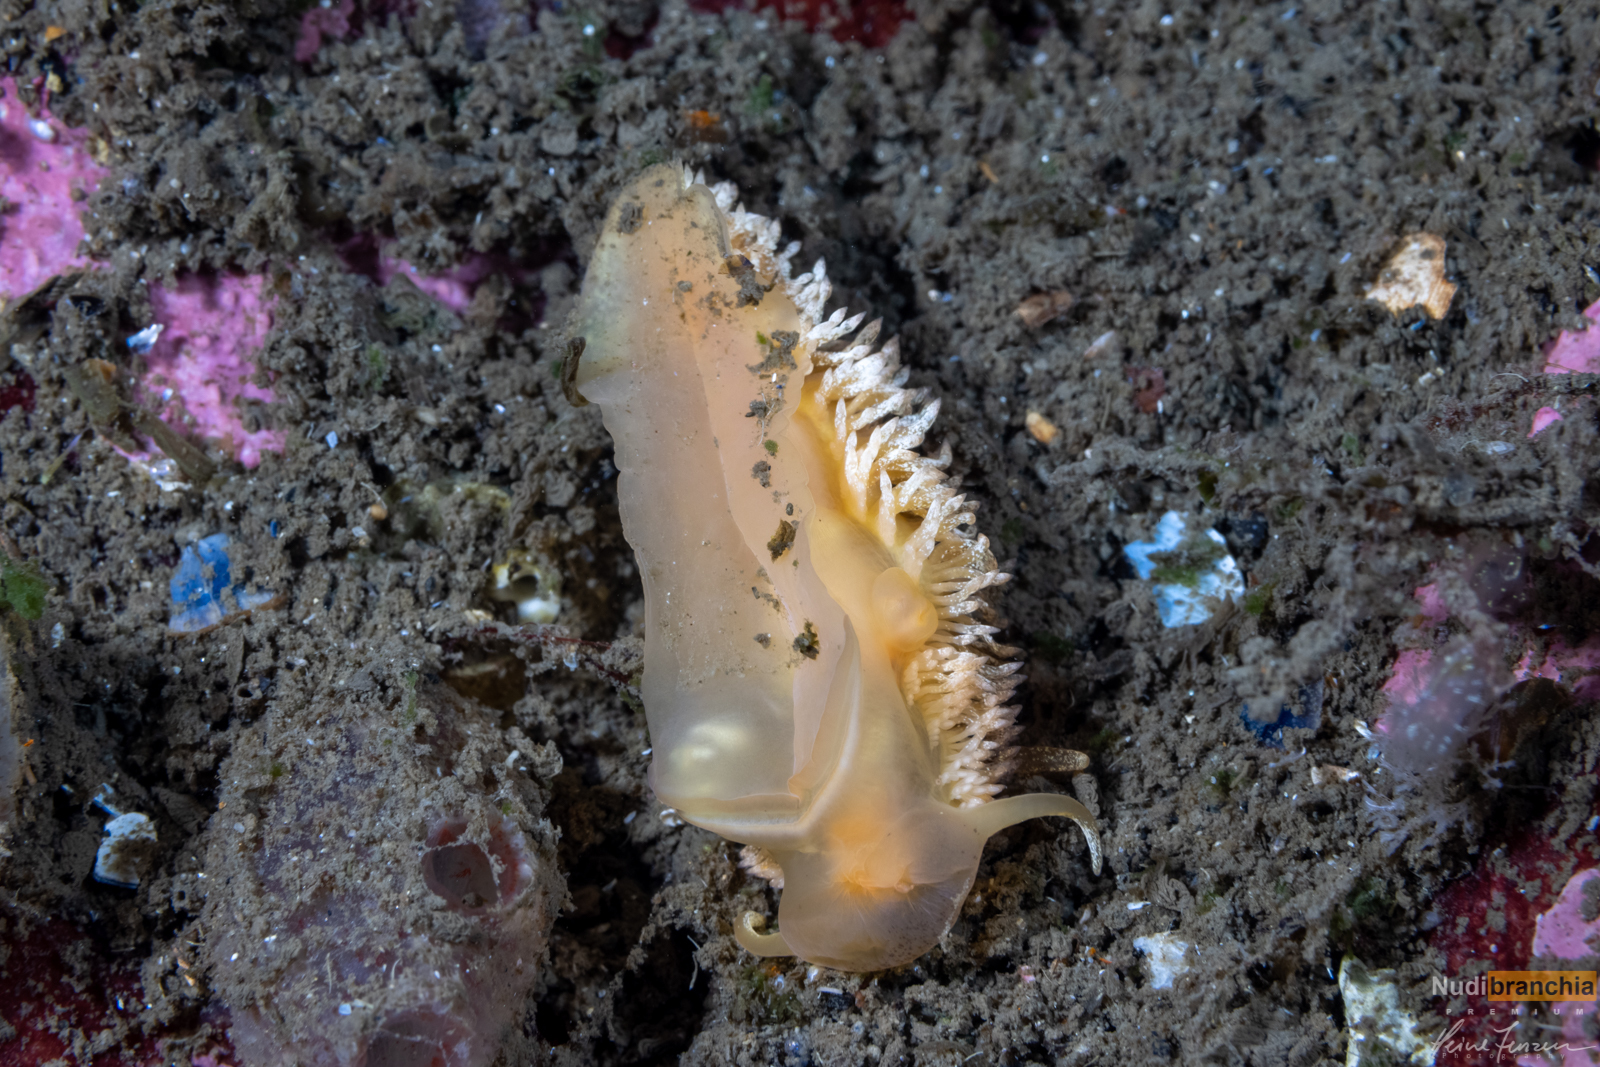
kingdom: Animalia
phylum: Mollusca
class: Gastropoda
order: Nudibranchia
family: Aeolidiidae
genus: Aeolidia
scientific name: Aeolidia papillosa
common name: Common grey sea slug
